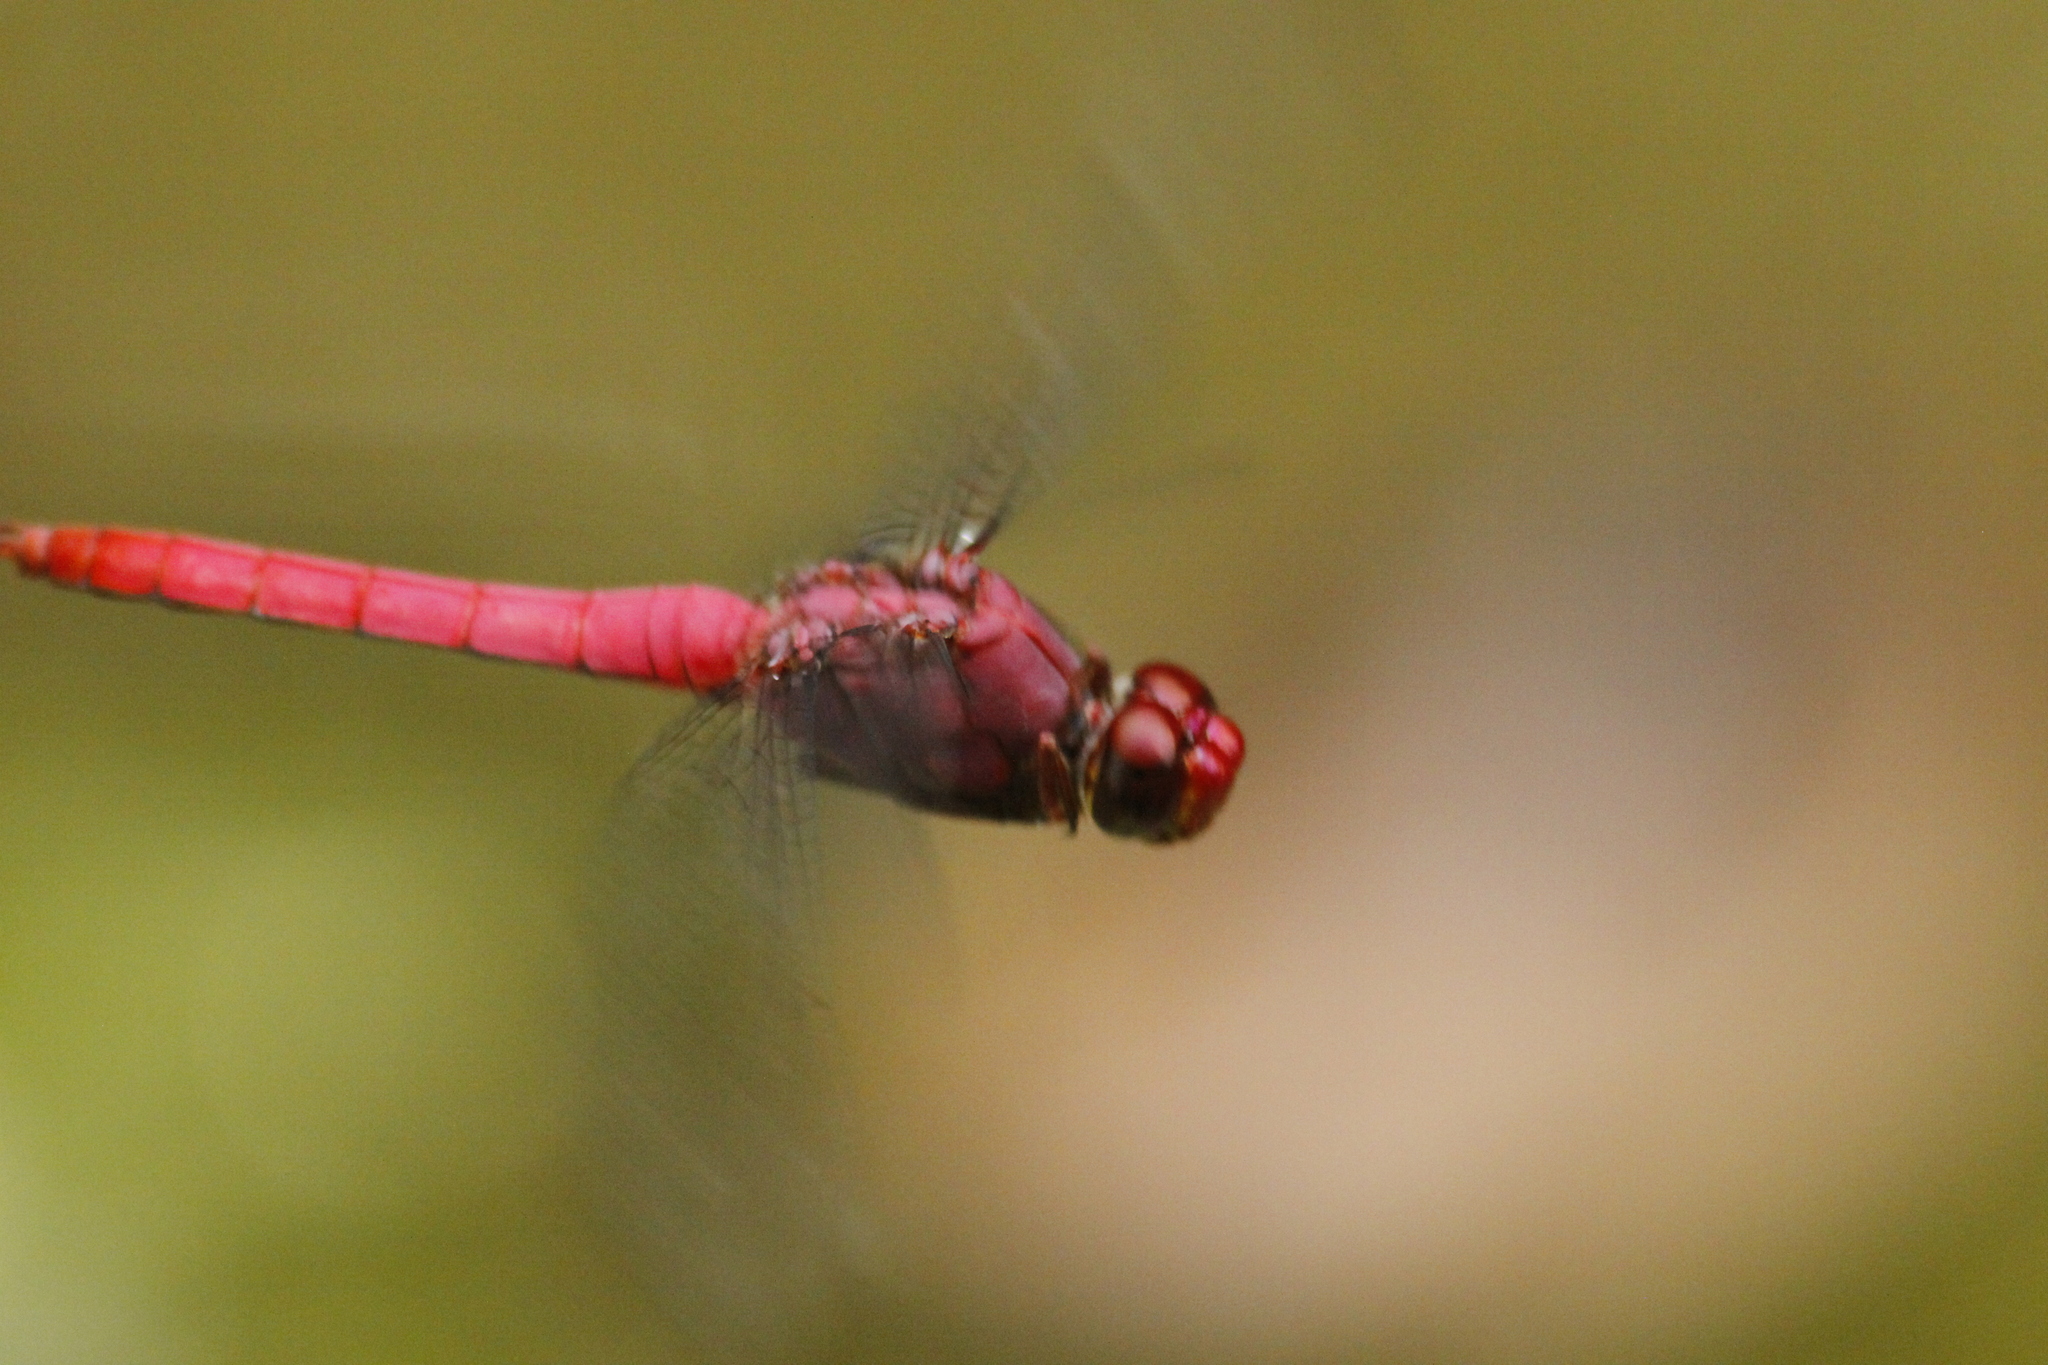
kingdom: Animalia
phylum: Arthropoda
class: Insecta
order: Odonata
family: Libellulidae
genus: Orthemis
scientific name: Orthemis discolor
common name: Carmine skimmer
